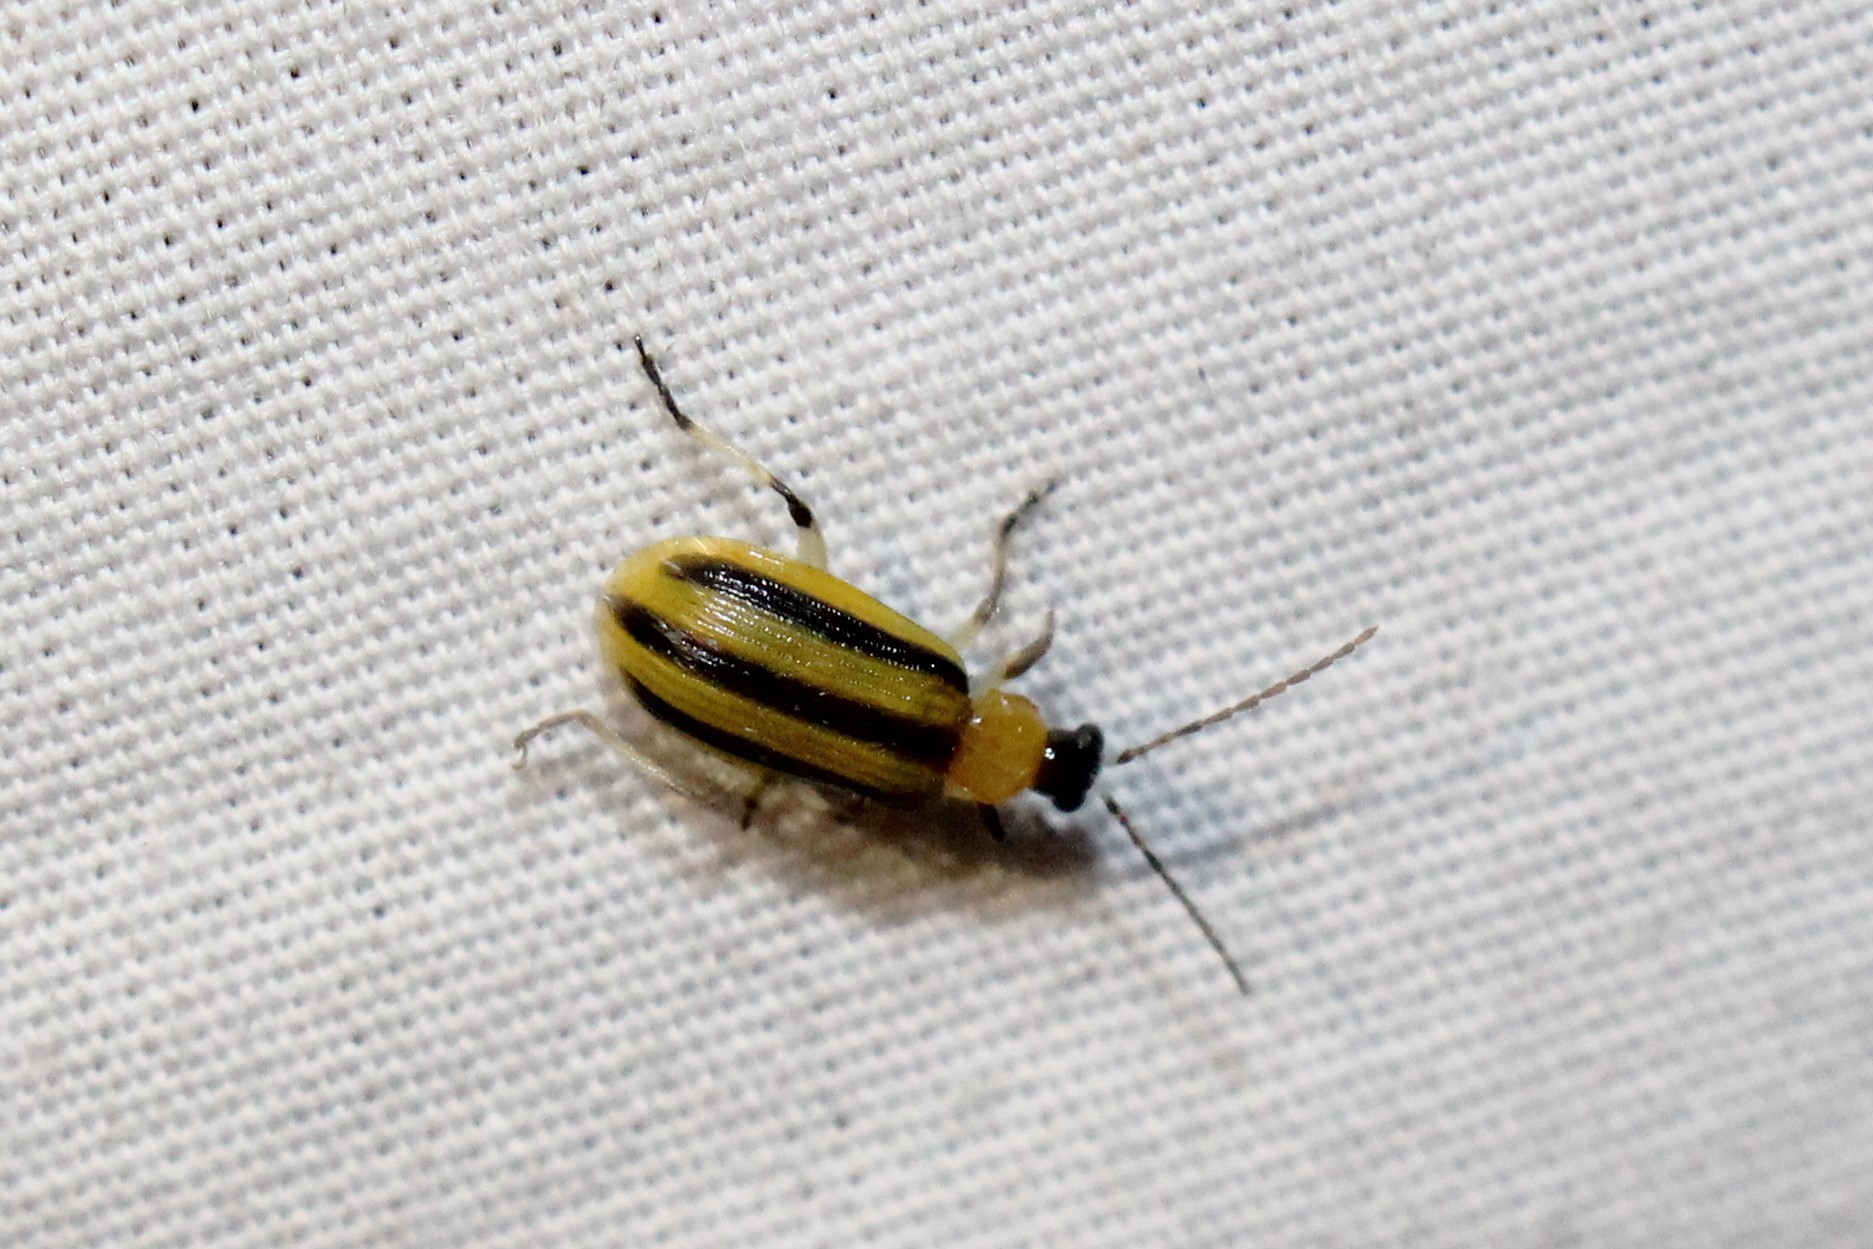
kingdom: Animalia
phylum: Arthropoda
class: Insecta
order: Coleoptera
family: Chrysomelidae
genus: Acalymma
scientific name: Acalymma vittatum
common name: Striped cucumber beetle
